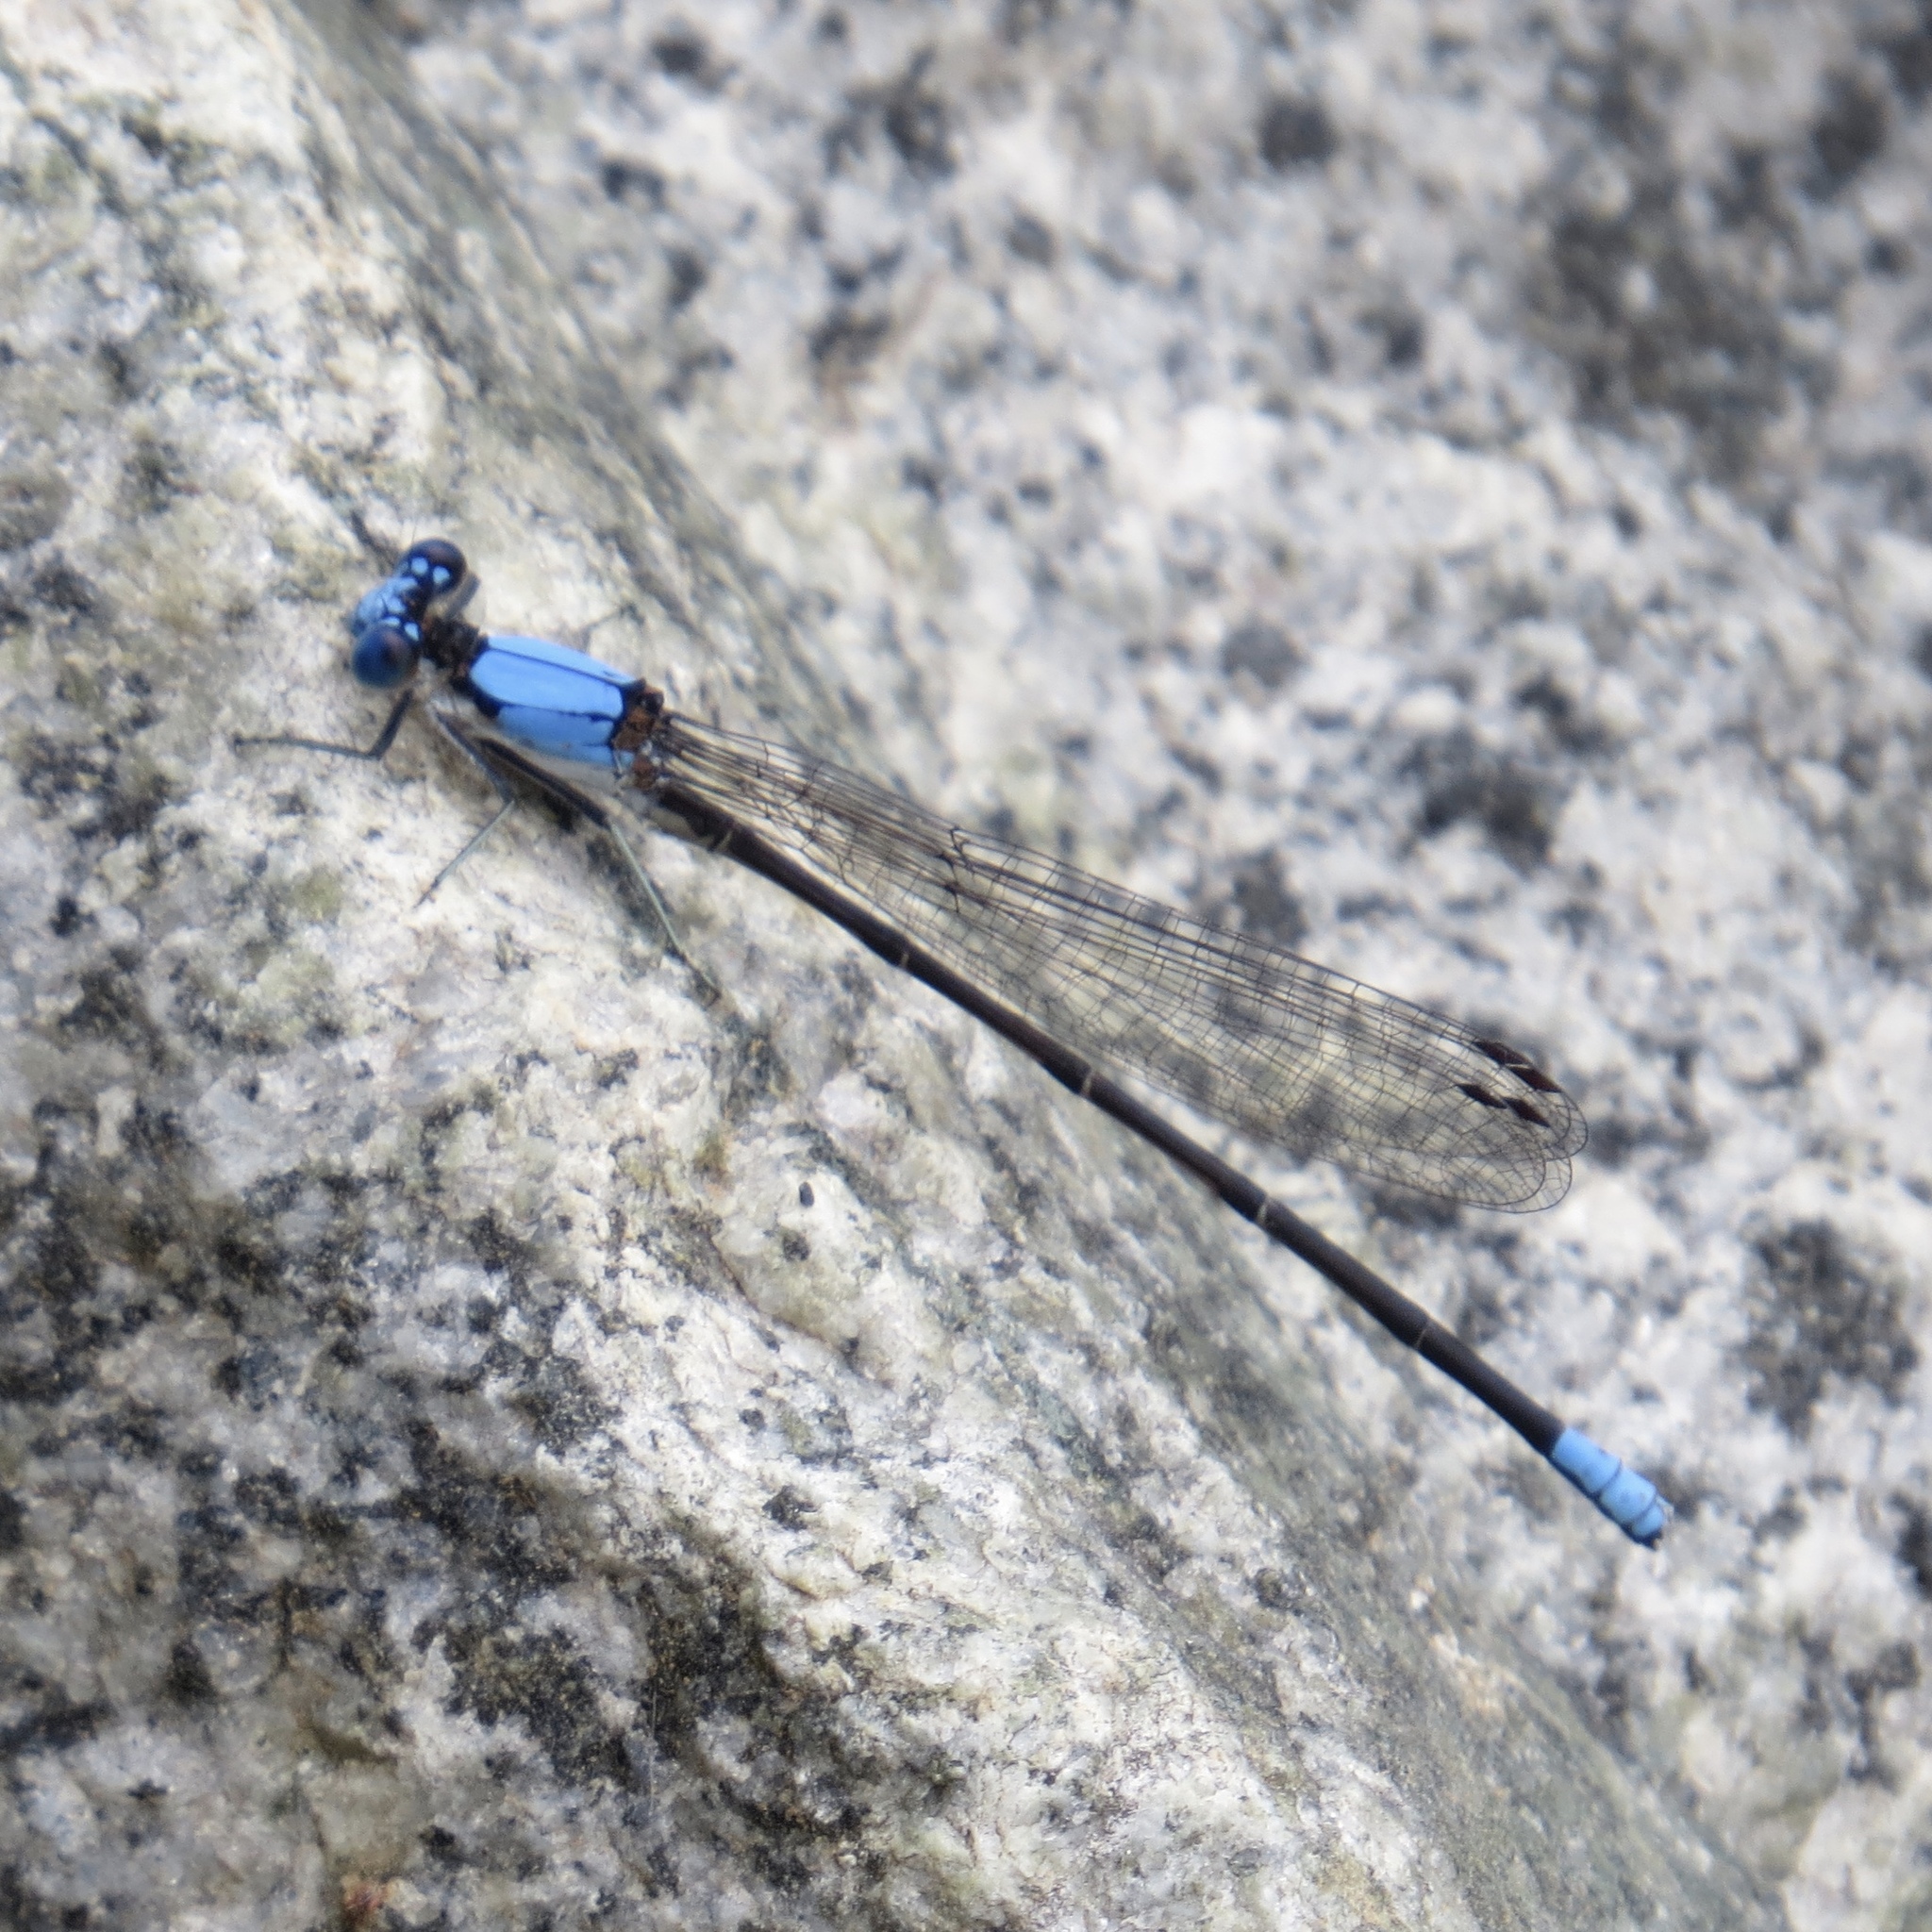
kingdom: Animalia
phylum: Arthropoda
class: Insecta
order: Odonata
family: Coenagrionidae
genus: Argia
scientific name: Argia apicalis
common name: Blue-fronted dancer
